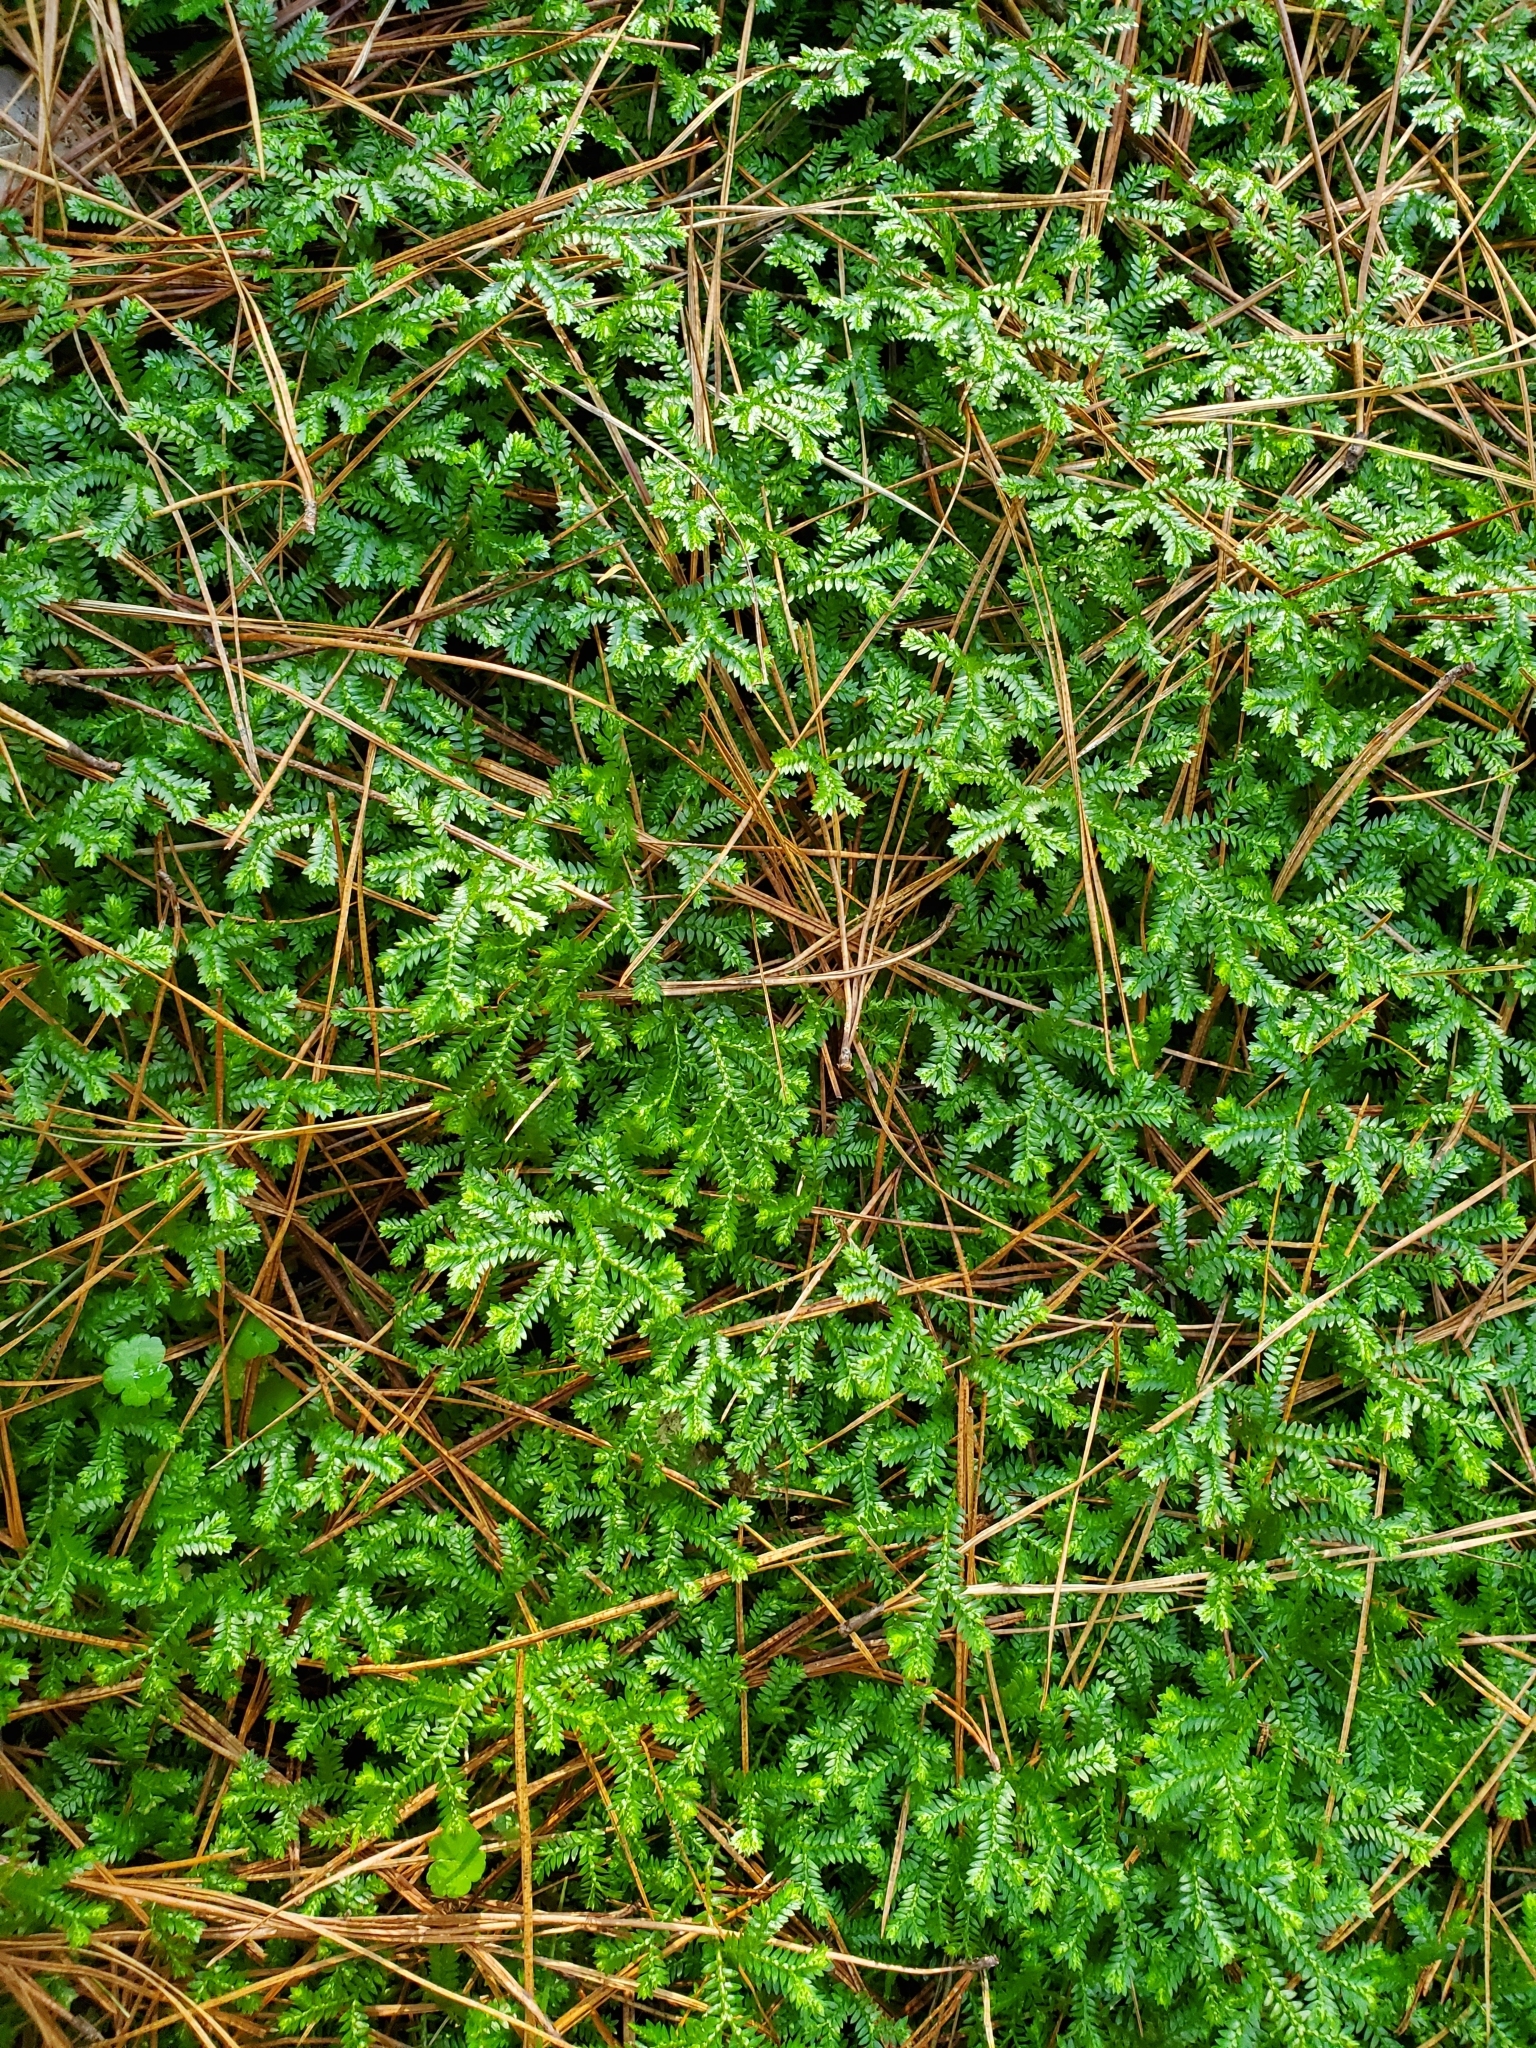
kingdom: Plantae
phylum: Tracheophyta
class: Lycopodiopsida
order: Selaginellales
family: Selaginellaceae
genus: Selaginella
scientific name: Selaginella kraussiana
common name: Krauss' spikemoss
